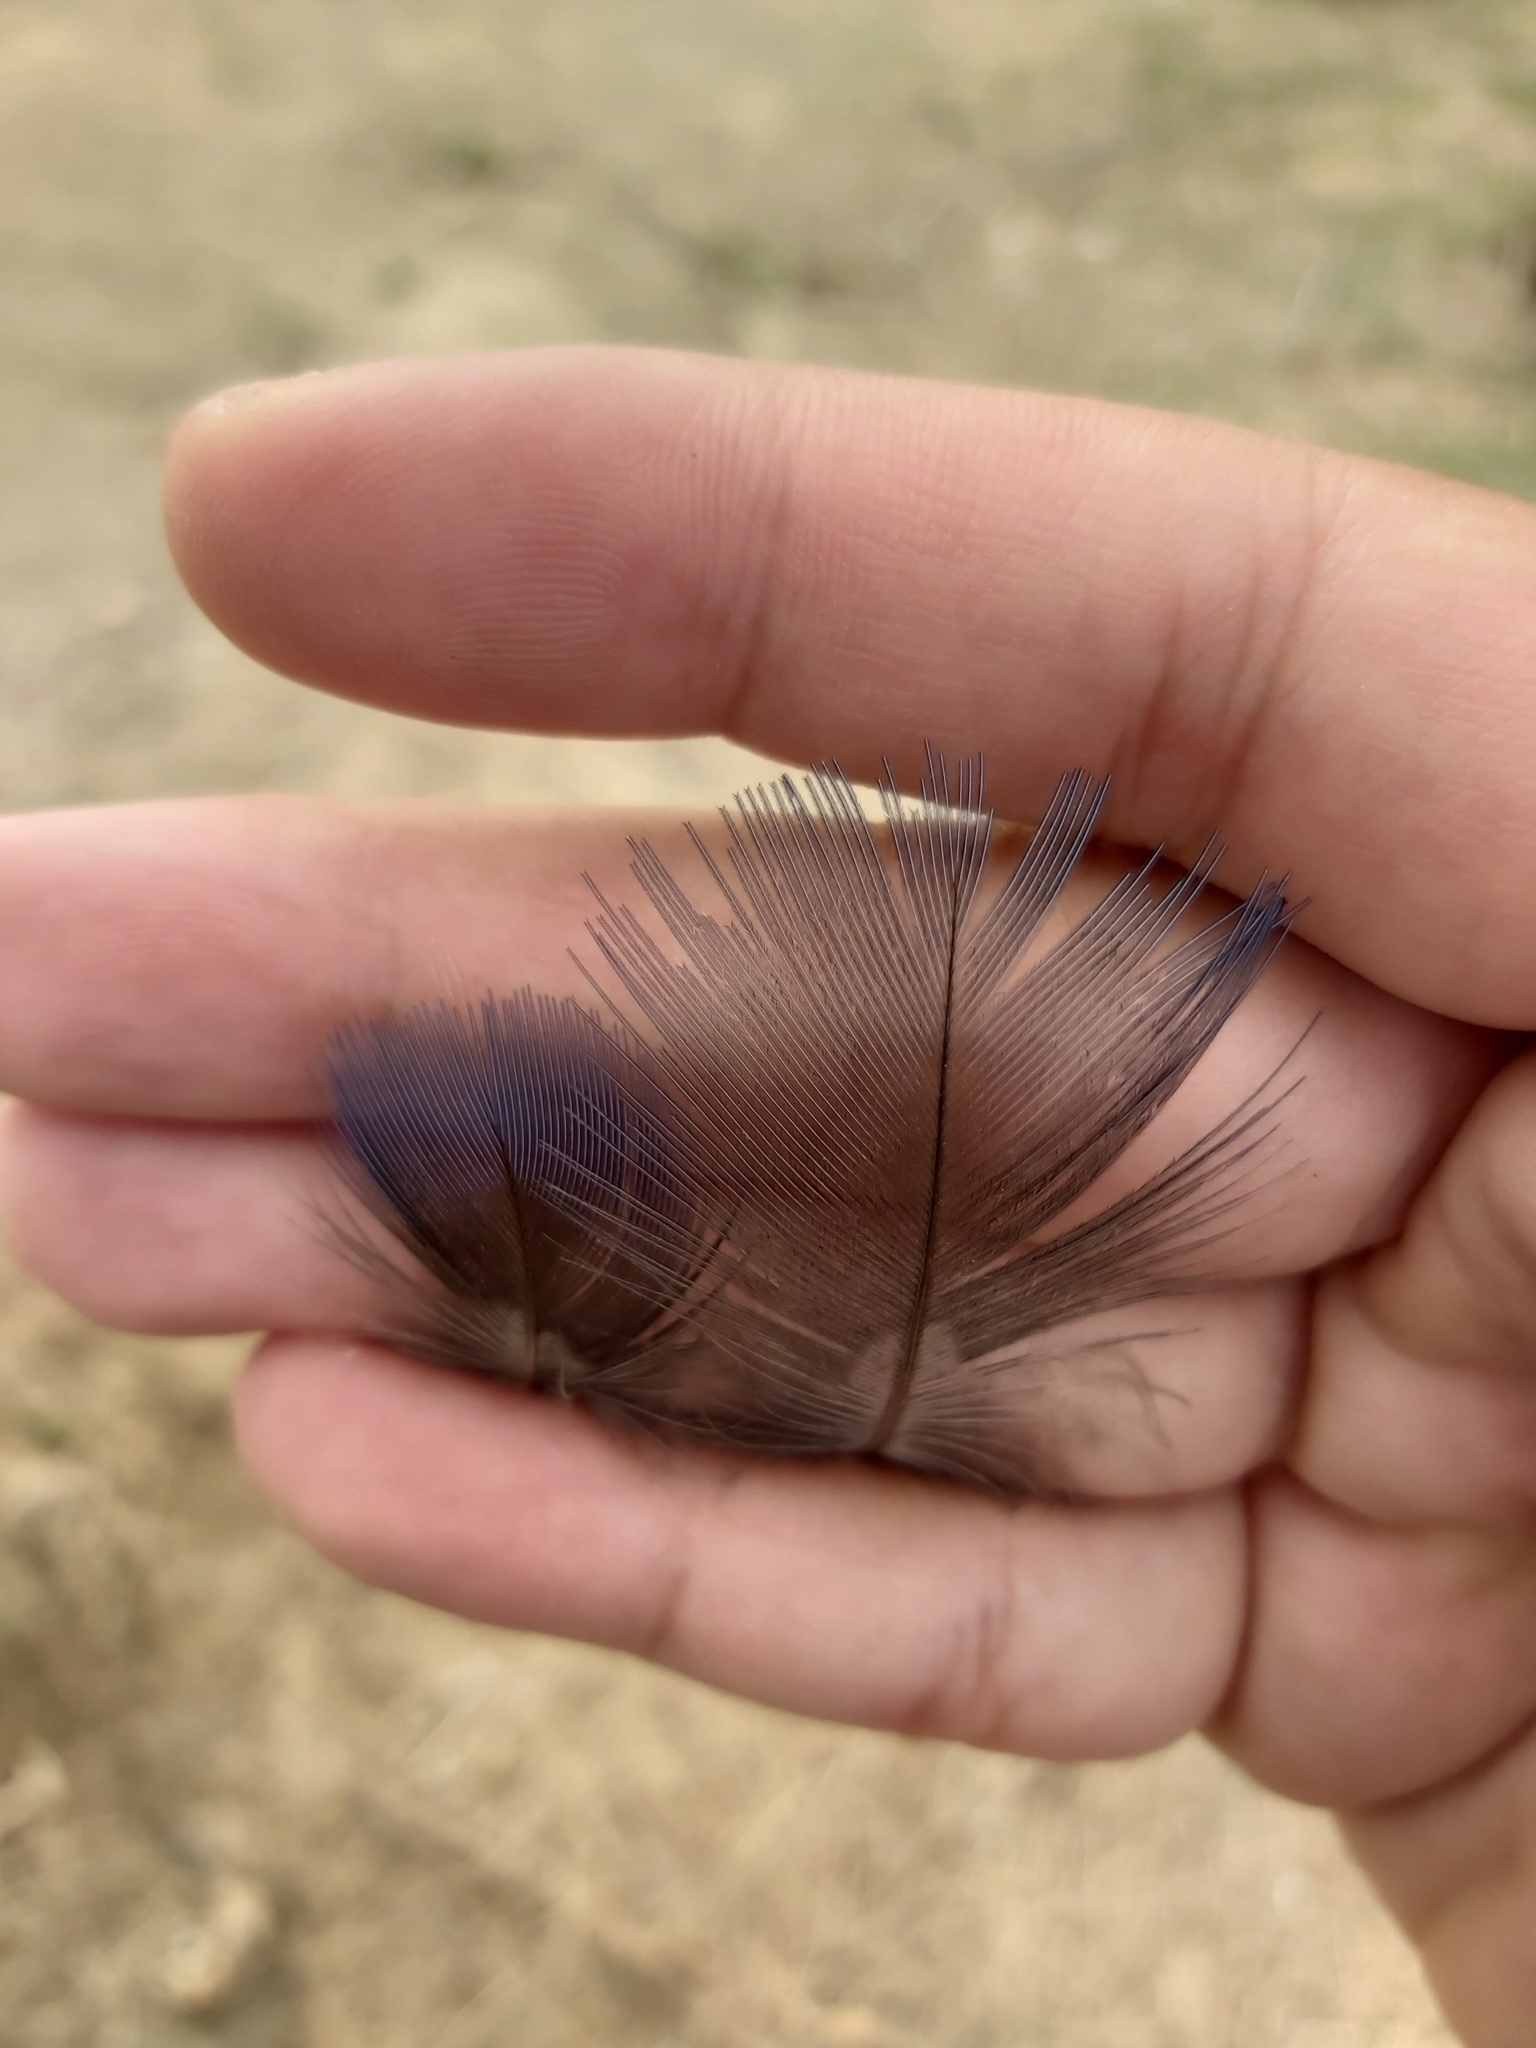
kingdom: Animalia
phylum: Chordata
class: Aves
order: Gruiformes
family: Rallidae
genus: Porphyrio
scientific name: Porphyrio melanotus
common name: Australasian swamphen
